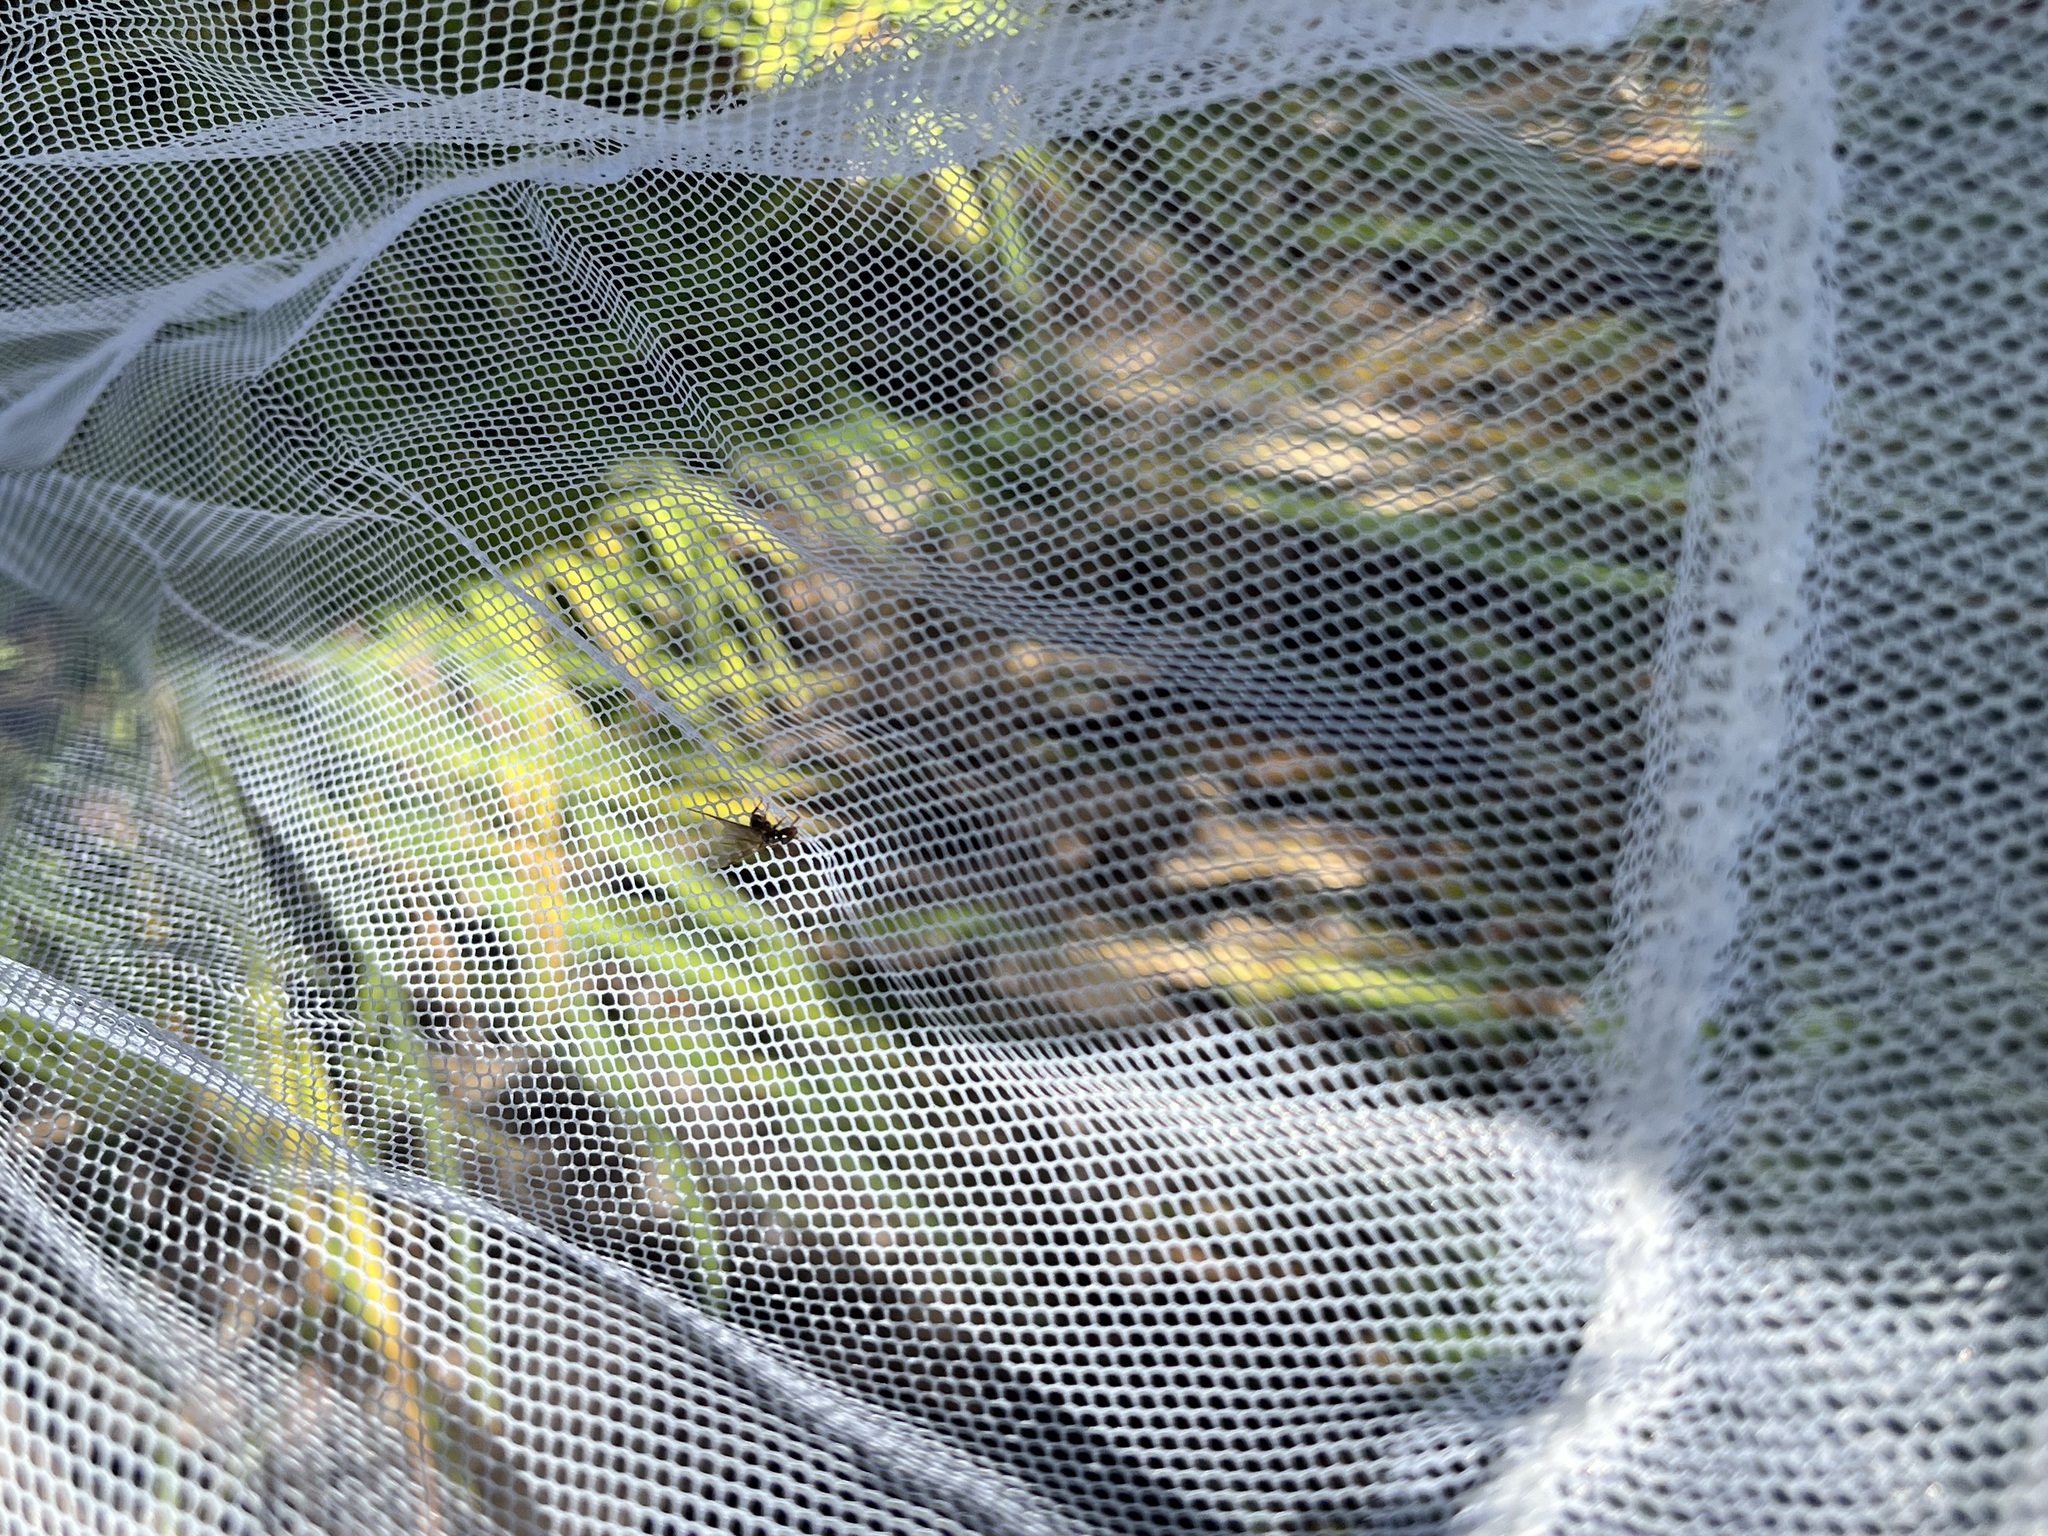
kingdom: Animalia
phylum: Arthropoda
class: Insecta
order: Hymenoptera
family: Formicidae
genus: Lasius
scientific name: Lasius claviger
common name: Common citronella ant
